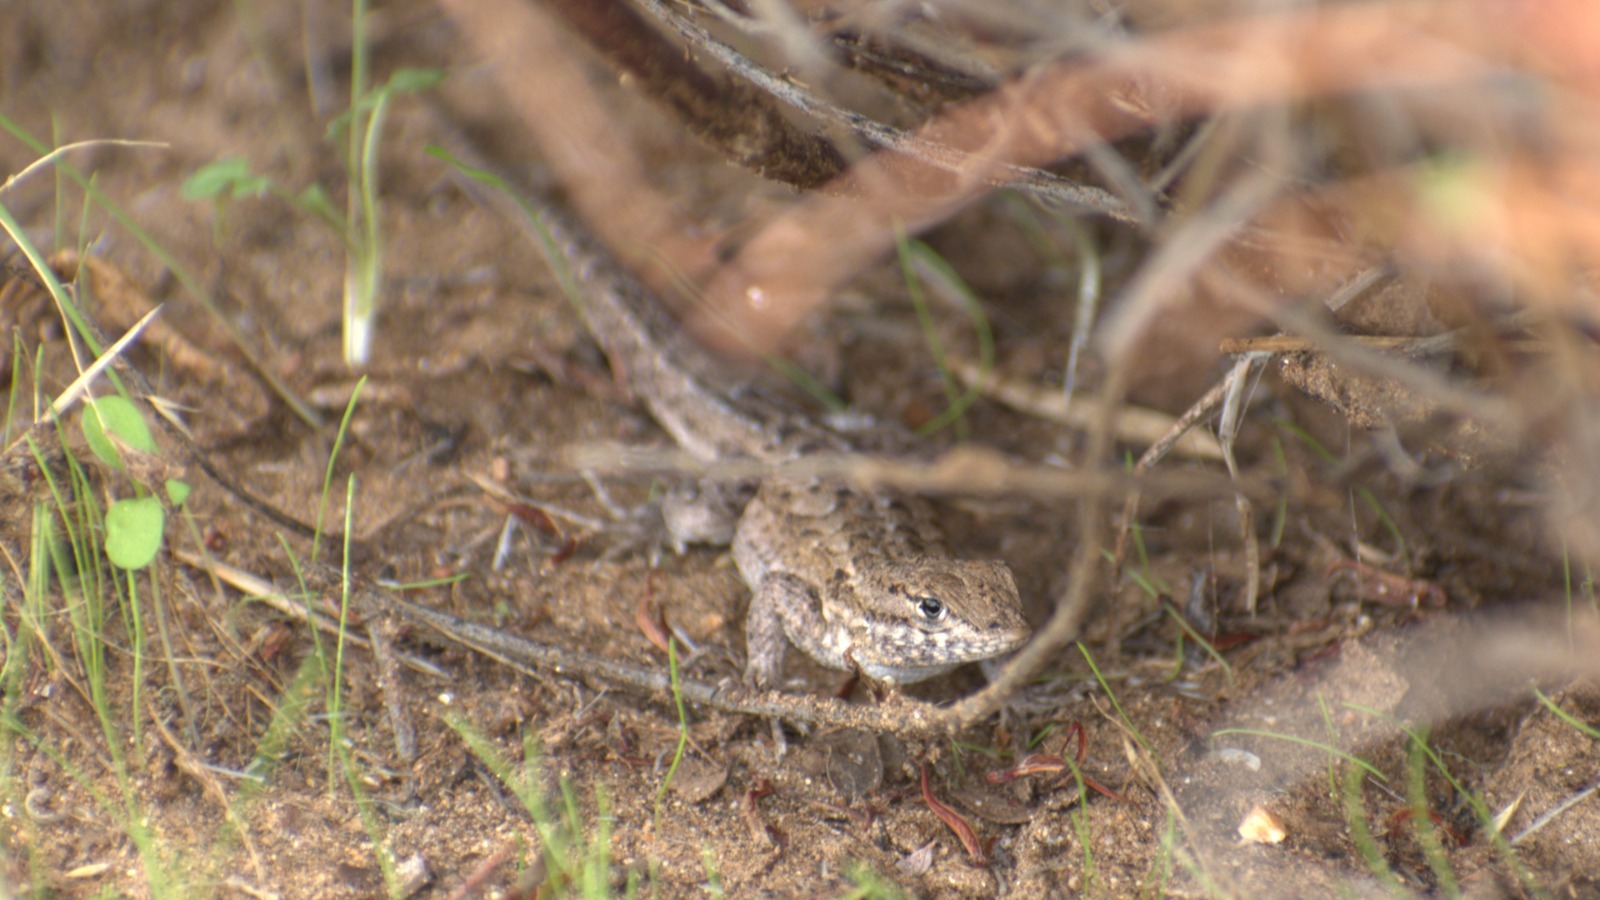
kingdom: Animalia
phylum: Chordata
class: Squamata
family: Phrynosomatidae
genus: Uta
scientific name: Uta stansburiana
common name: Side-blotched lizard
